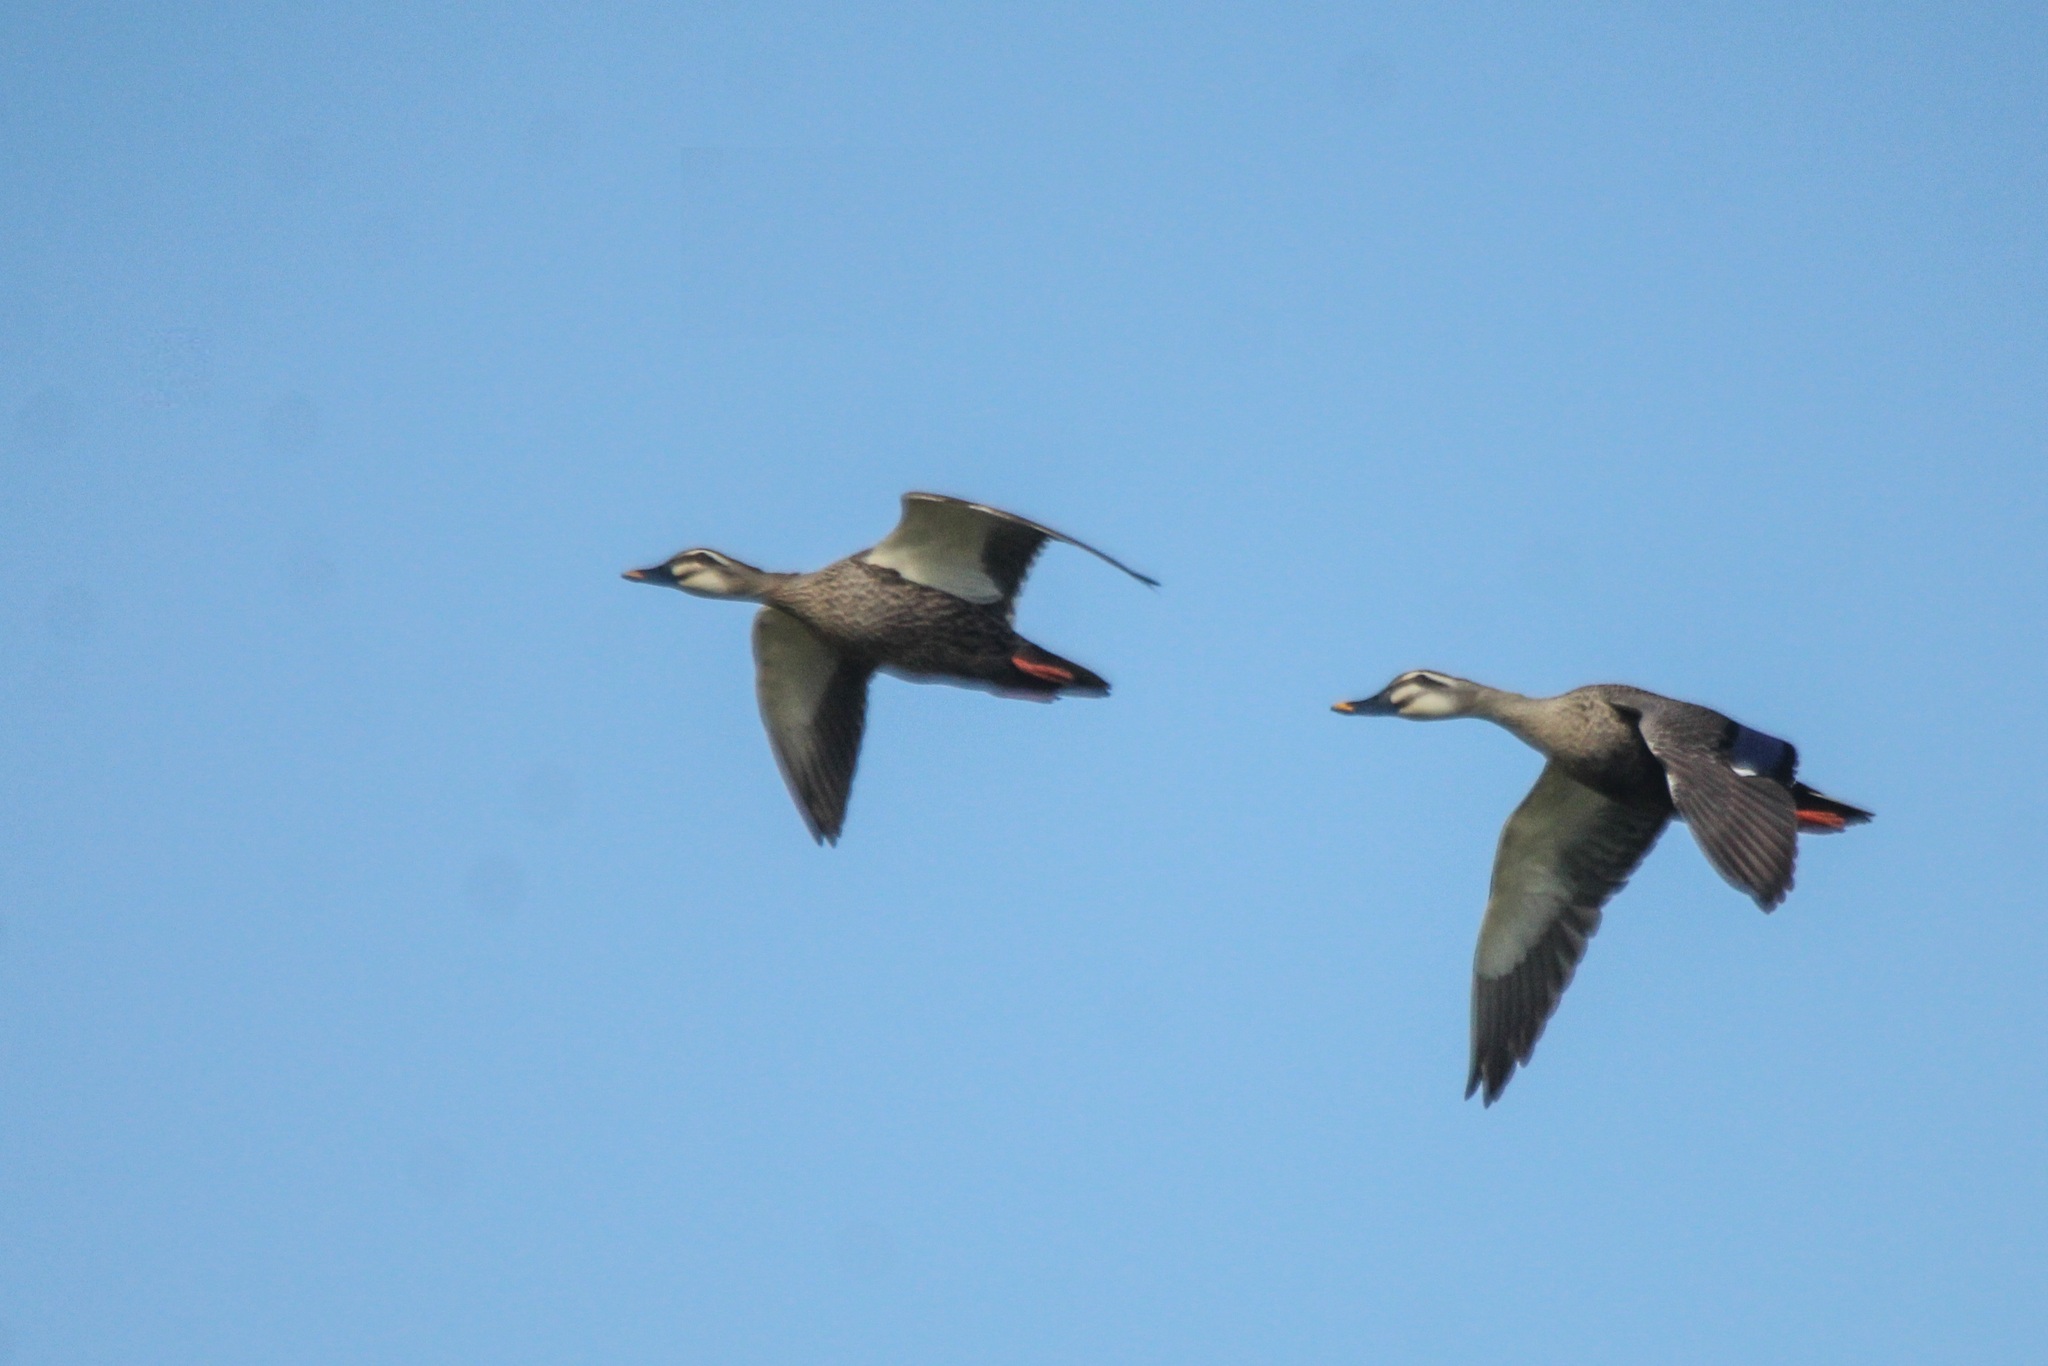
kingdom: Animalia
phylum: Chordata
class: Aves
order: Anseriformes
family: Anatidae
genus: Anas
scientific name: Anas zonorhyncha
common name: Eastern spot-billed duck
